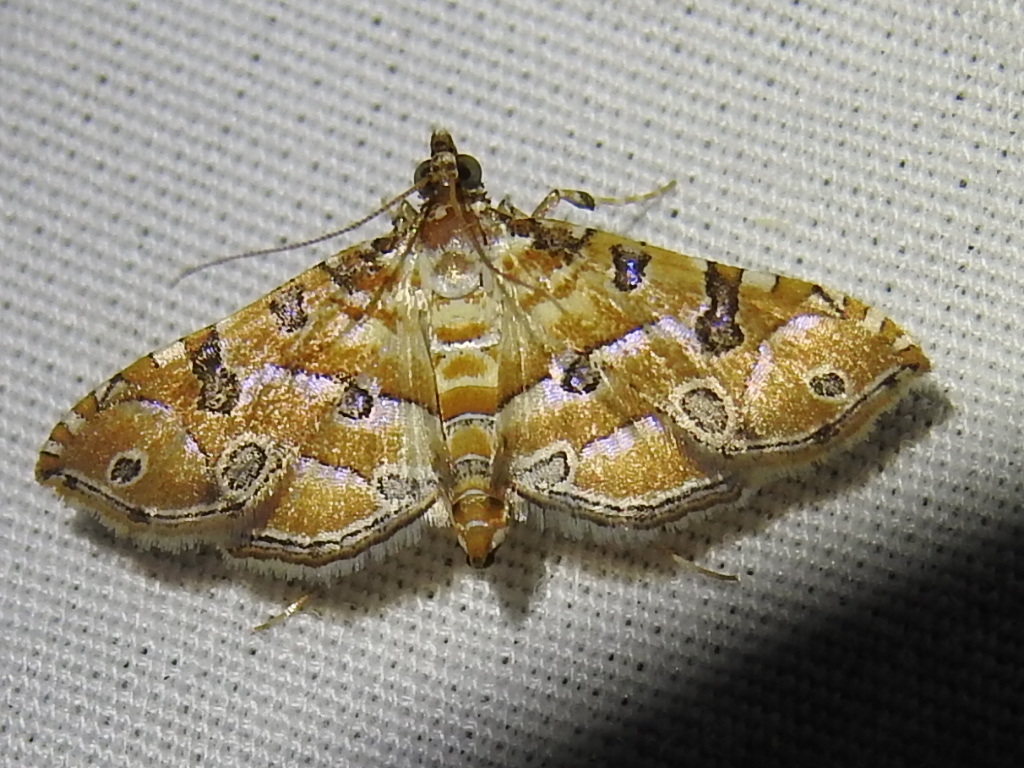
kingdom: Animalia
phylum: Arthropoda
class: Insecta
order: Lepidoptera
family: Crambidae
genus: Ommatospila
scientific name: Ommatospila narcaeusalis
